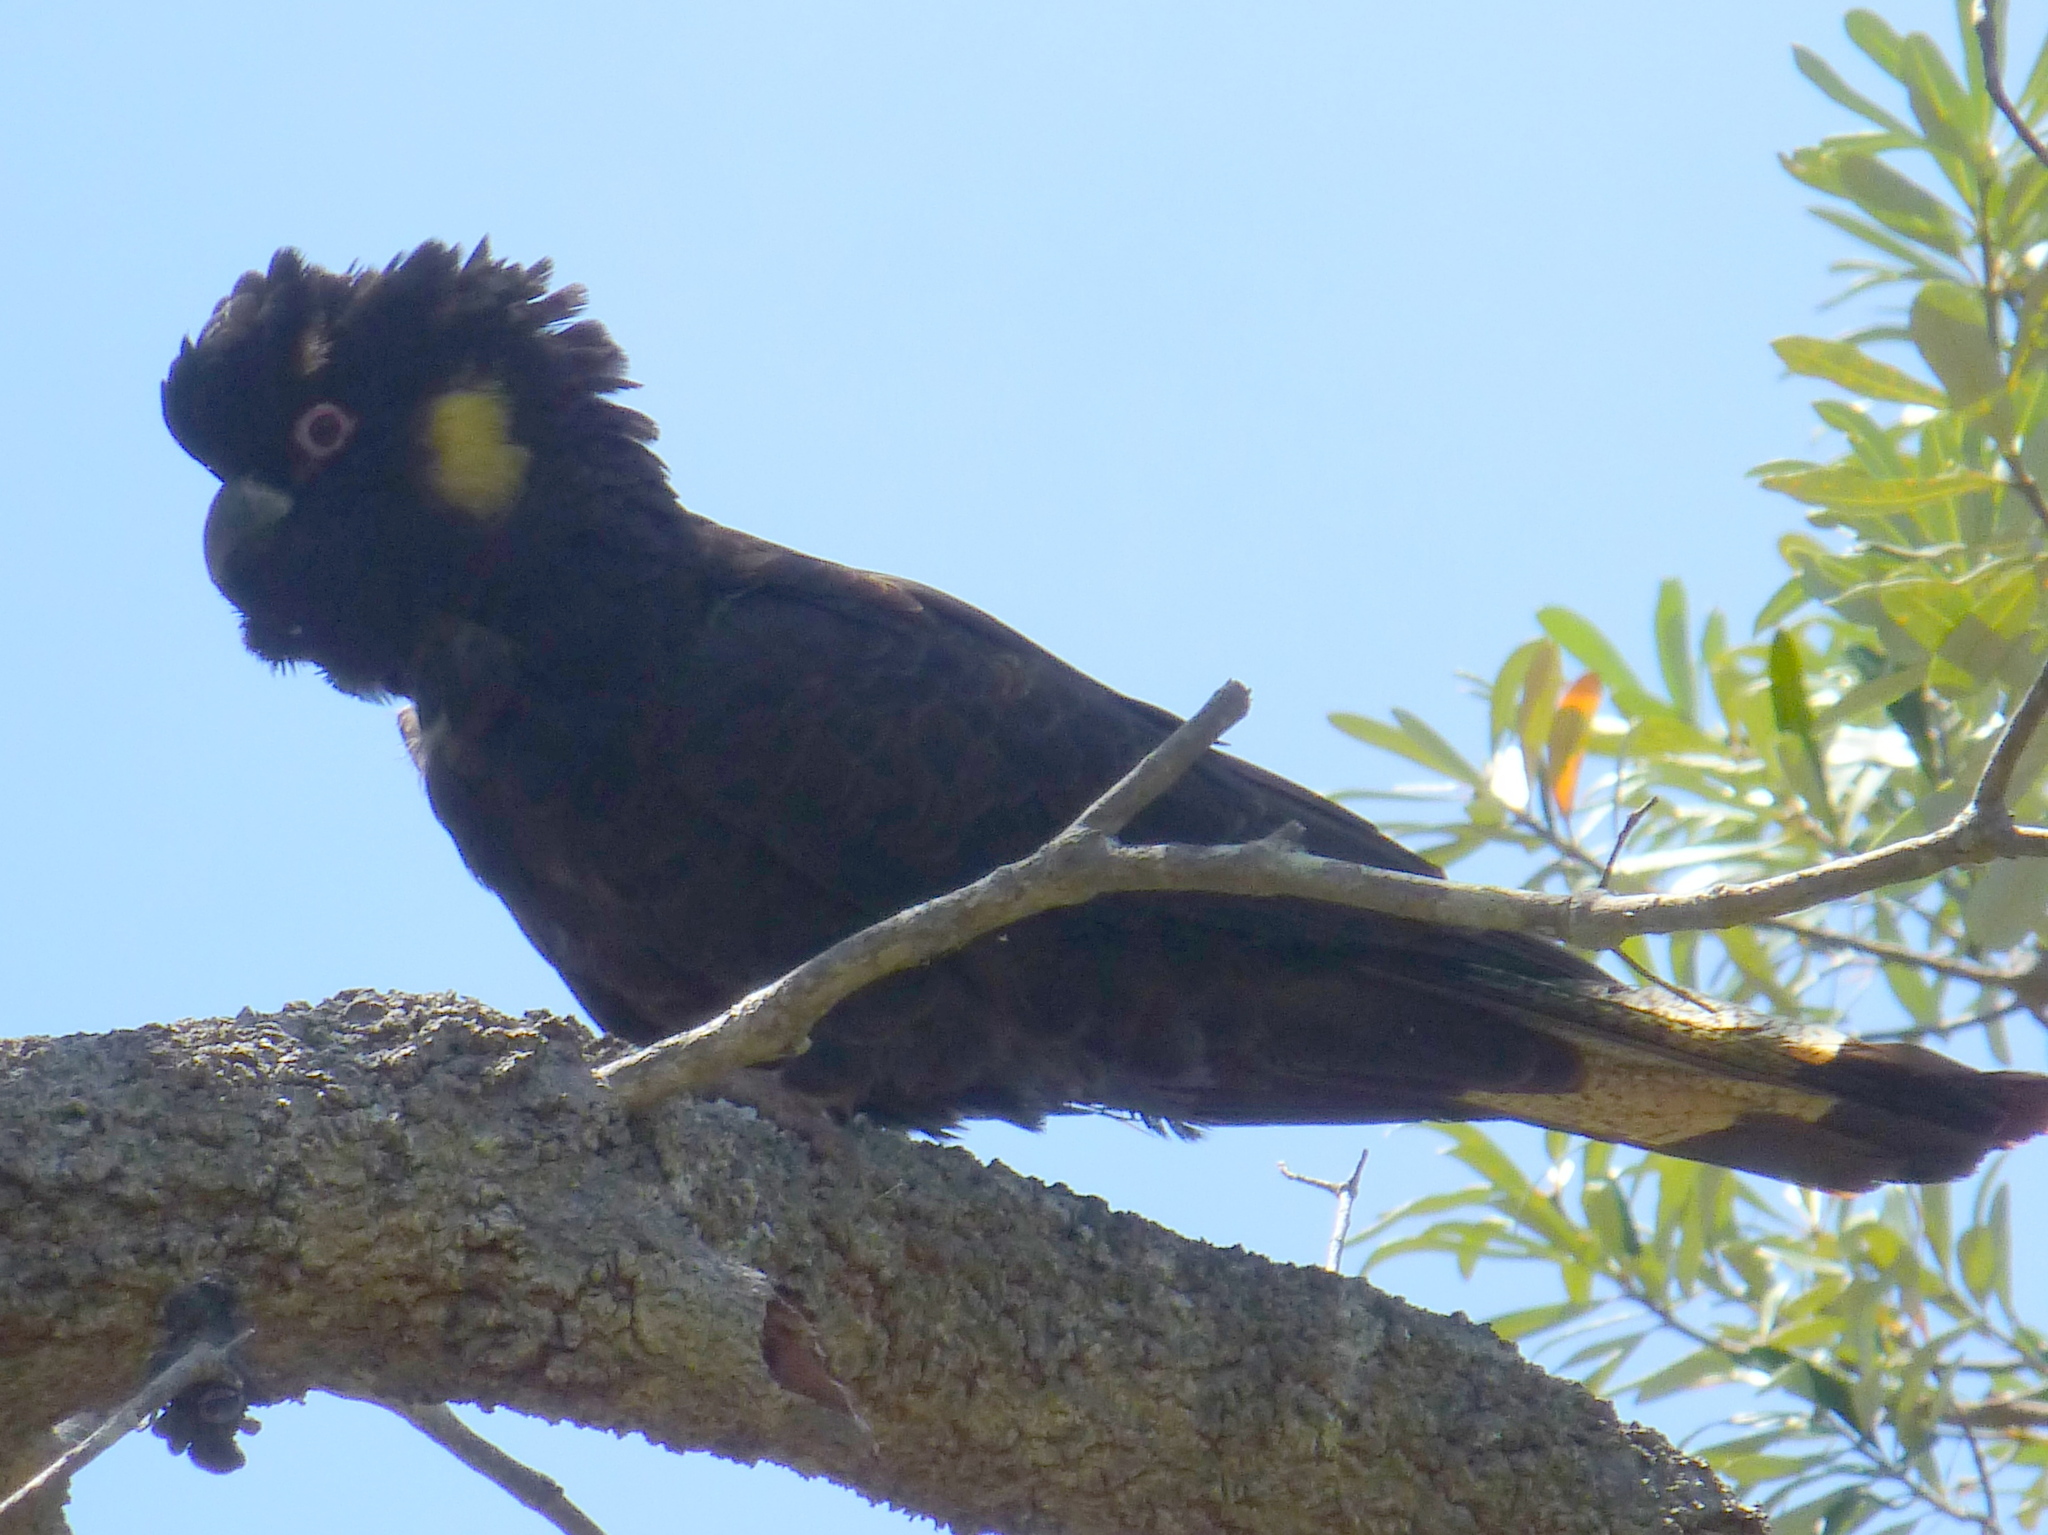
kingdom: Animalia
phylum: Chordata
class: Aves
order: Psittaciformes
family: Cacatuidae
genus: Zanda
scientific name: Zanda funerea
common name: Yellow-tailed black-cockatoo
